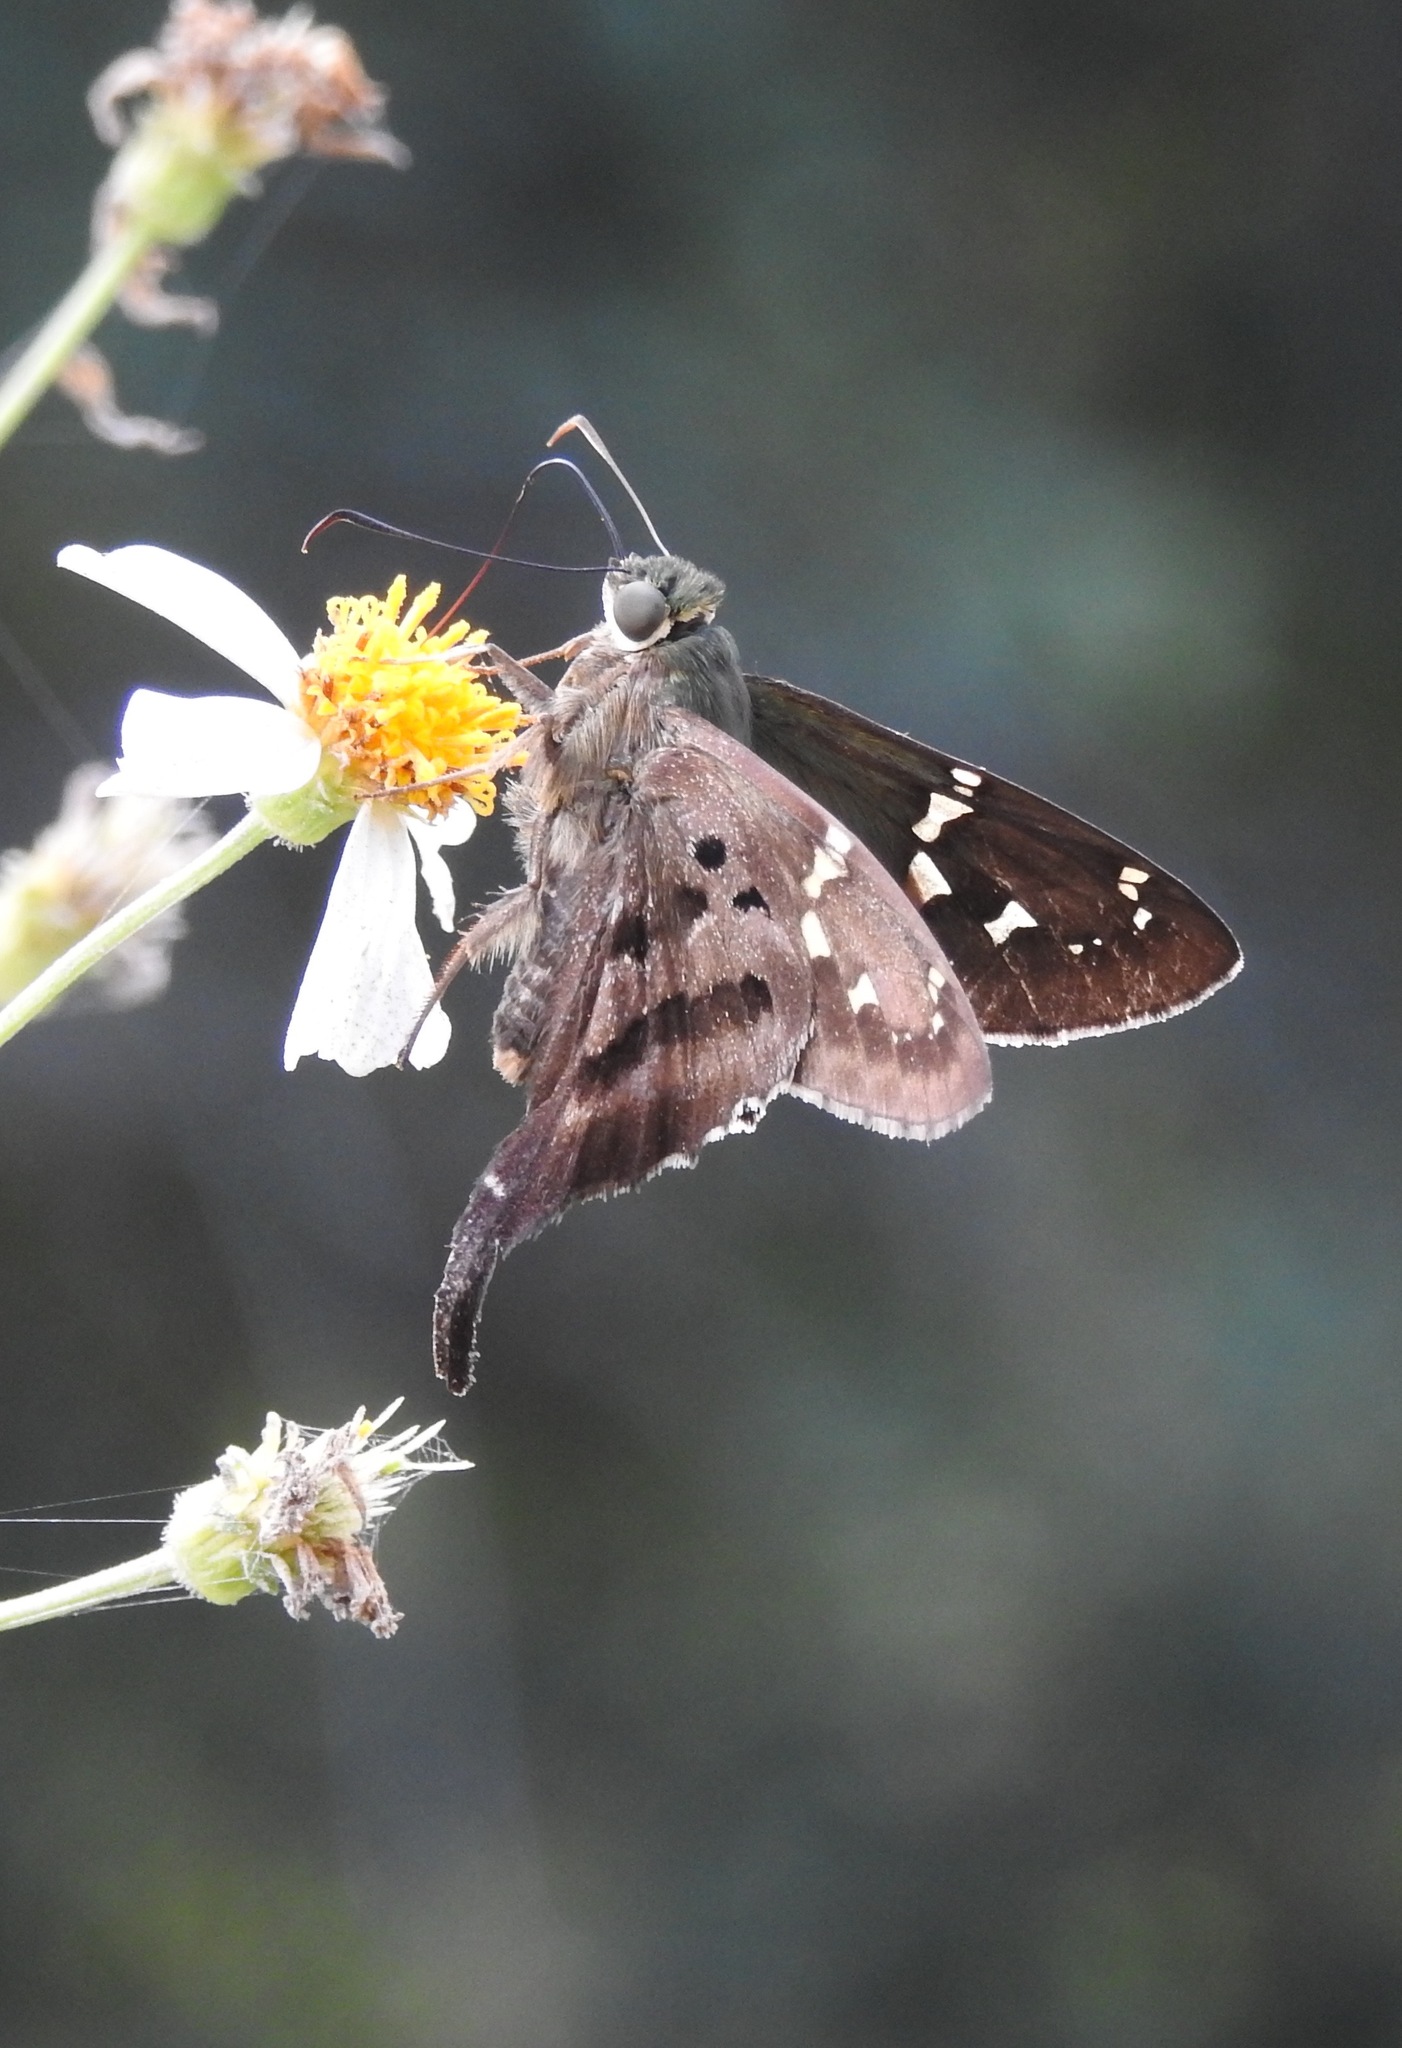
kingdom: Animalia
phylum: Arthropoda
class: Insecta
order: Lepidoptera
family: Hesperiidae
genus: Urbanus
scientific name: Urbanus proteus
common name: Long-tailed skipper
